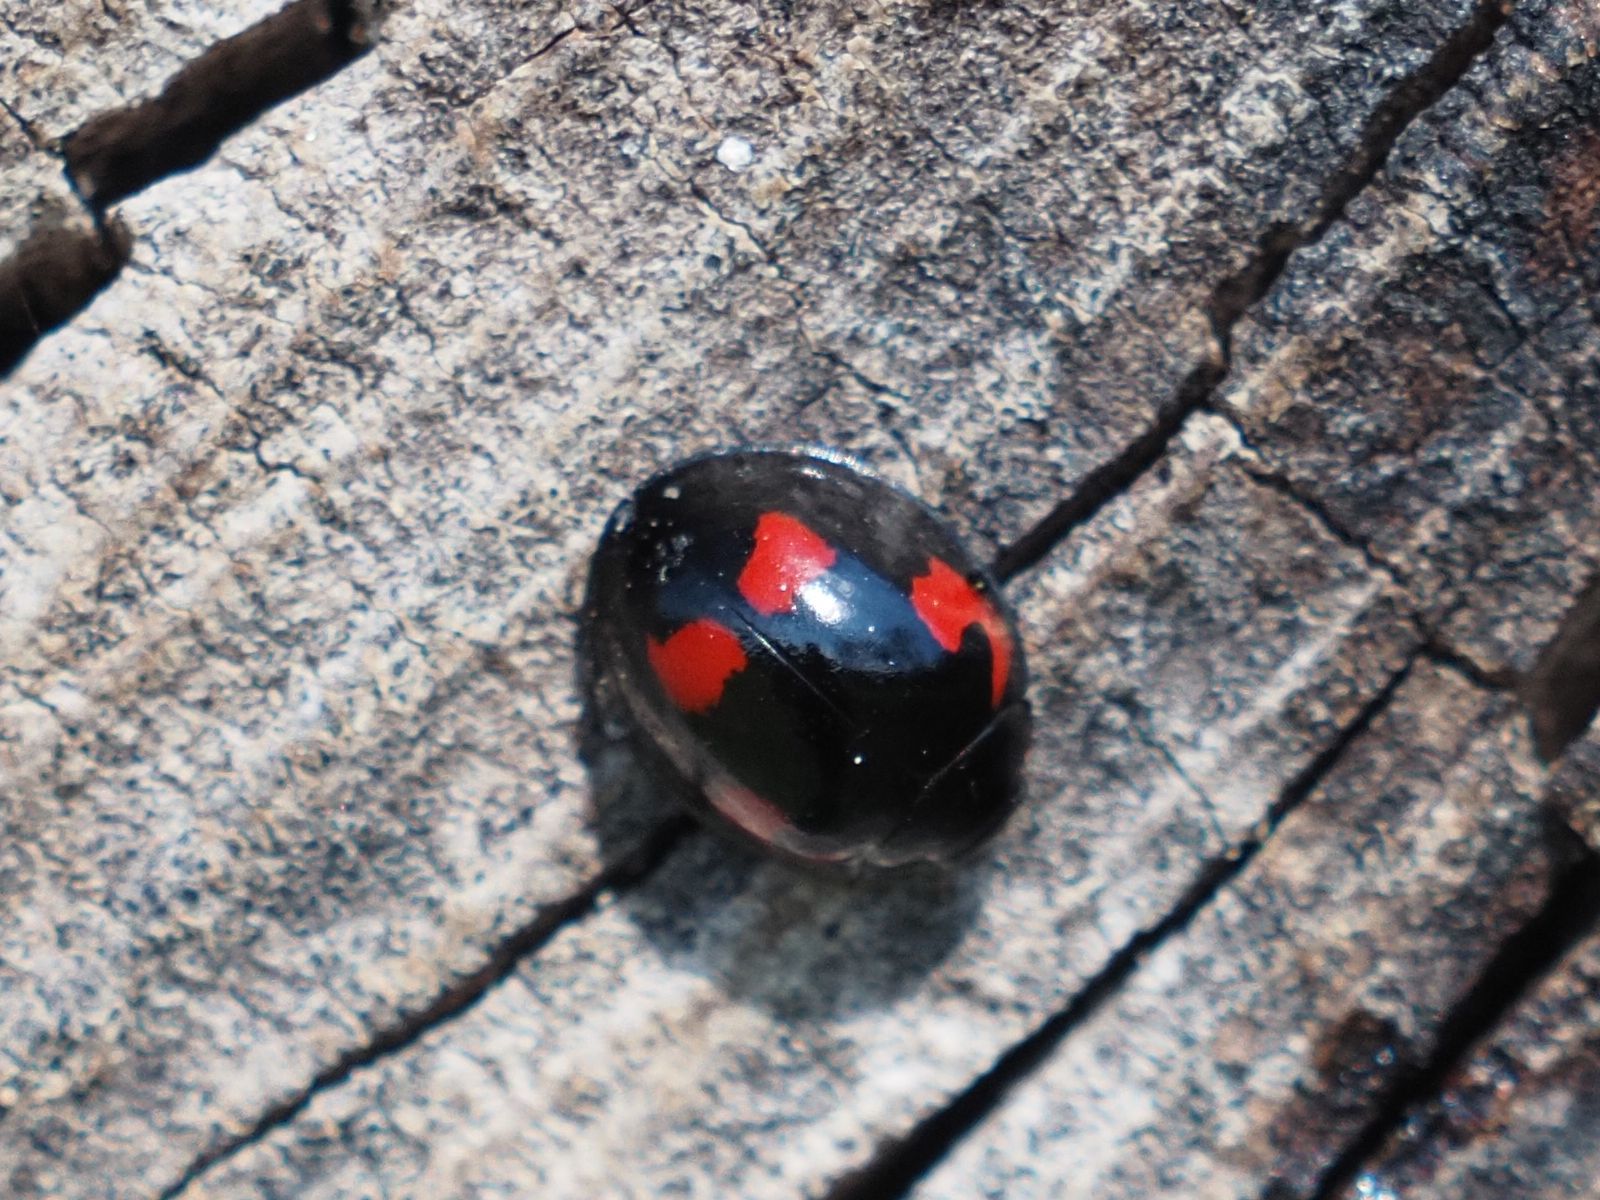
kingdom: Animalia
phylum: Arthropoda
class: Insecta
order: Coleoptera
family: Coccinellidae
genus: Brumus
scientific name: Brumus quadripustulatus
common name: Ladybird beetle
